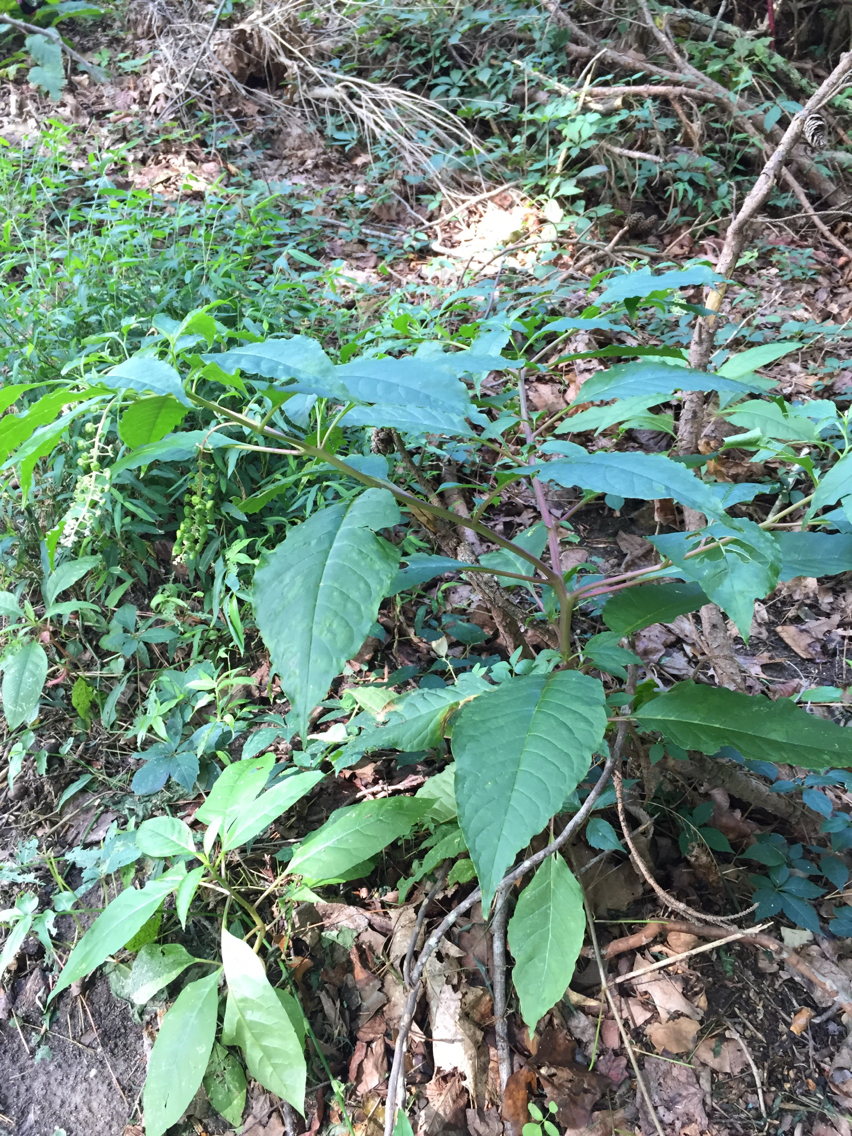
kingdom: Plantae
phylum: Tracheophyta
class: Magnoliopsida
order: Caryophyllales
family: Phytolaccaceae
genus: Phytolacca
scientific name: Phytolacca americana
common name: American pokeweed
